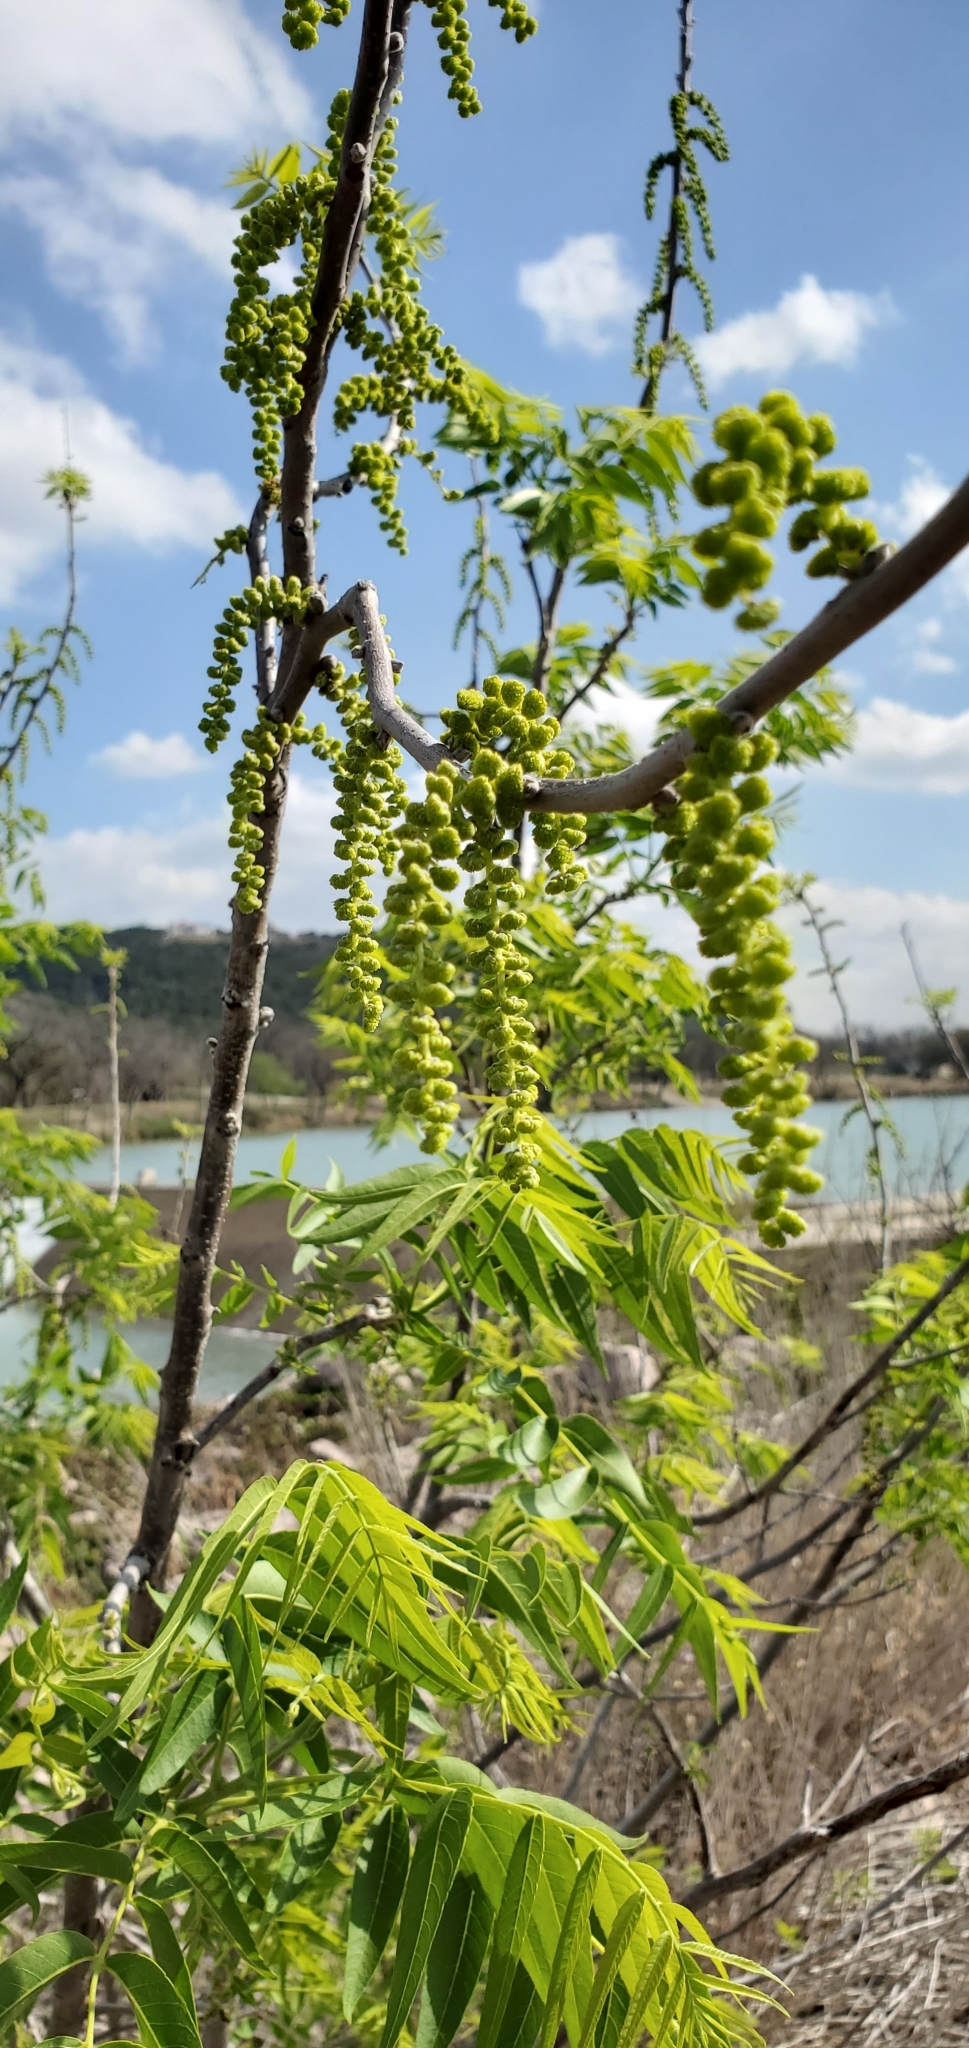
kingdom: Plantae
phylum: Tracheophyta
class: Magnoliopsida
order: Fagales
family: Juglandaceae
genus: Juglans
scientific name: Juglans microcarpa
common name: Texas walnut
